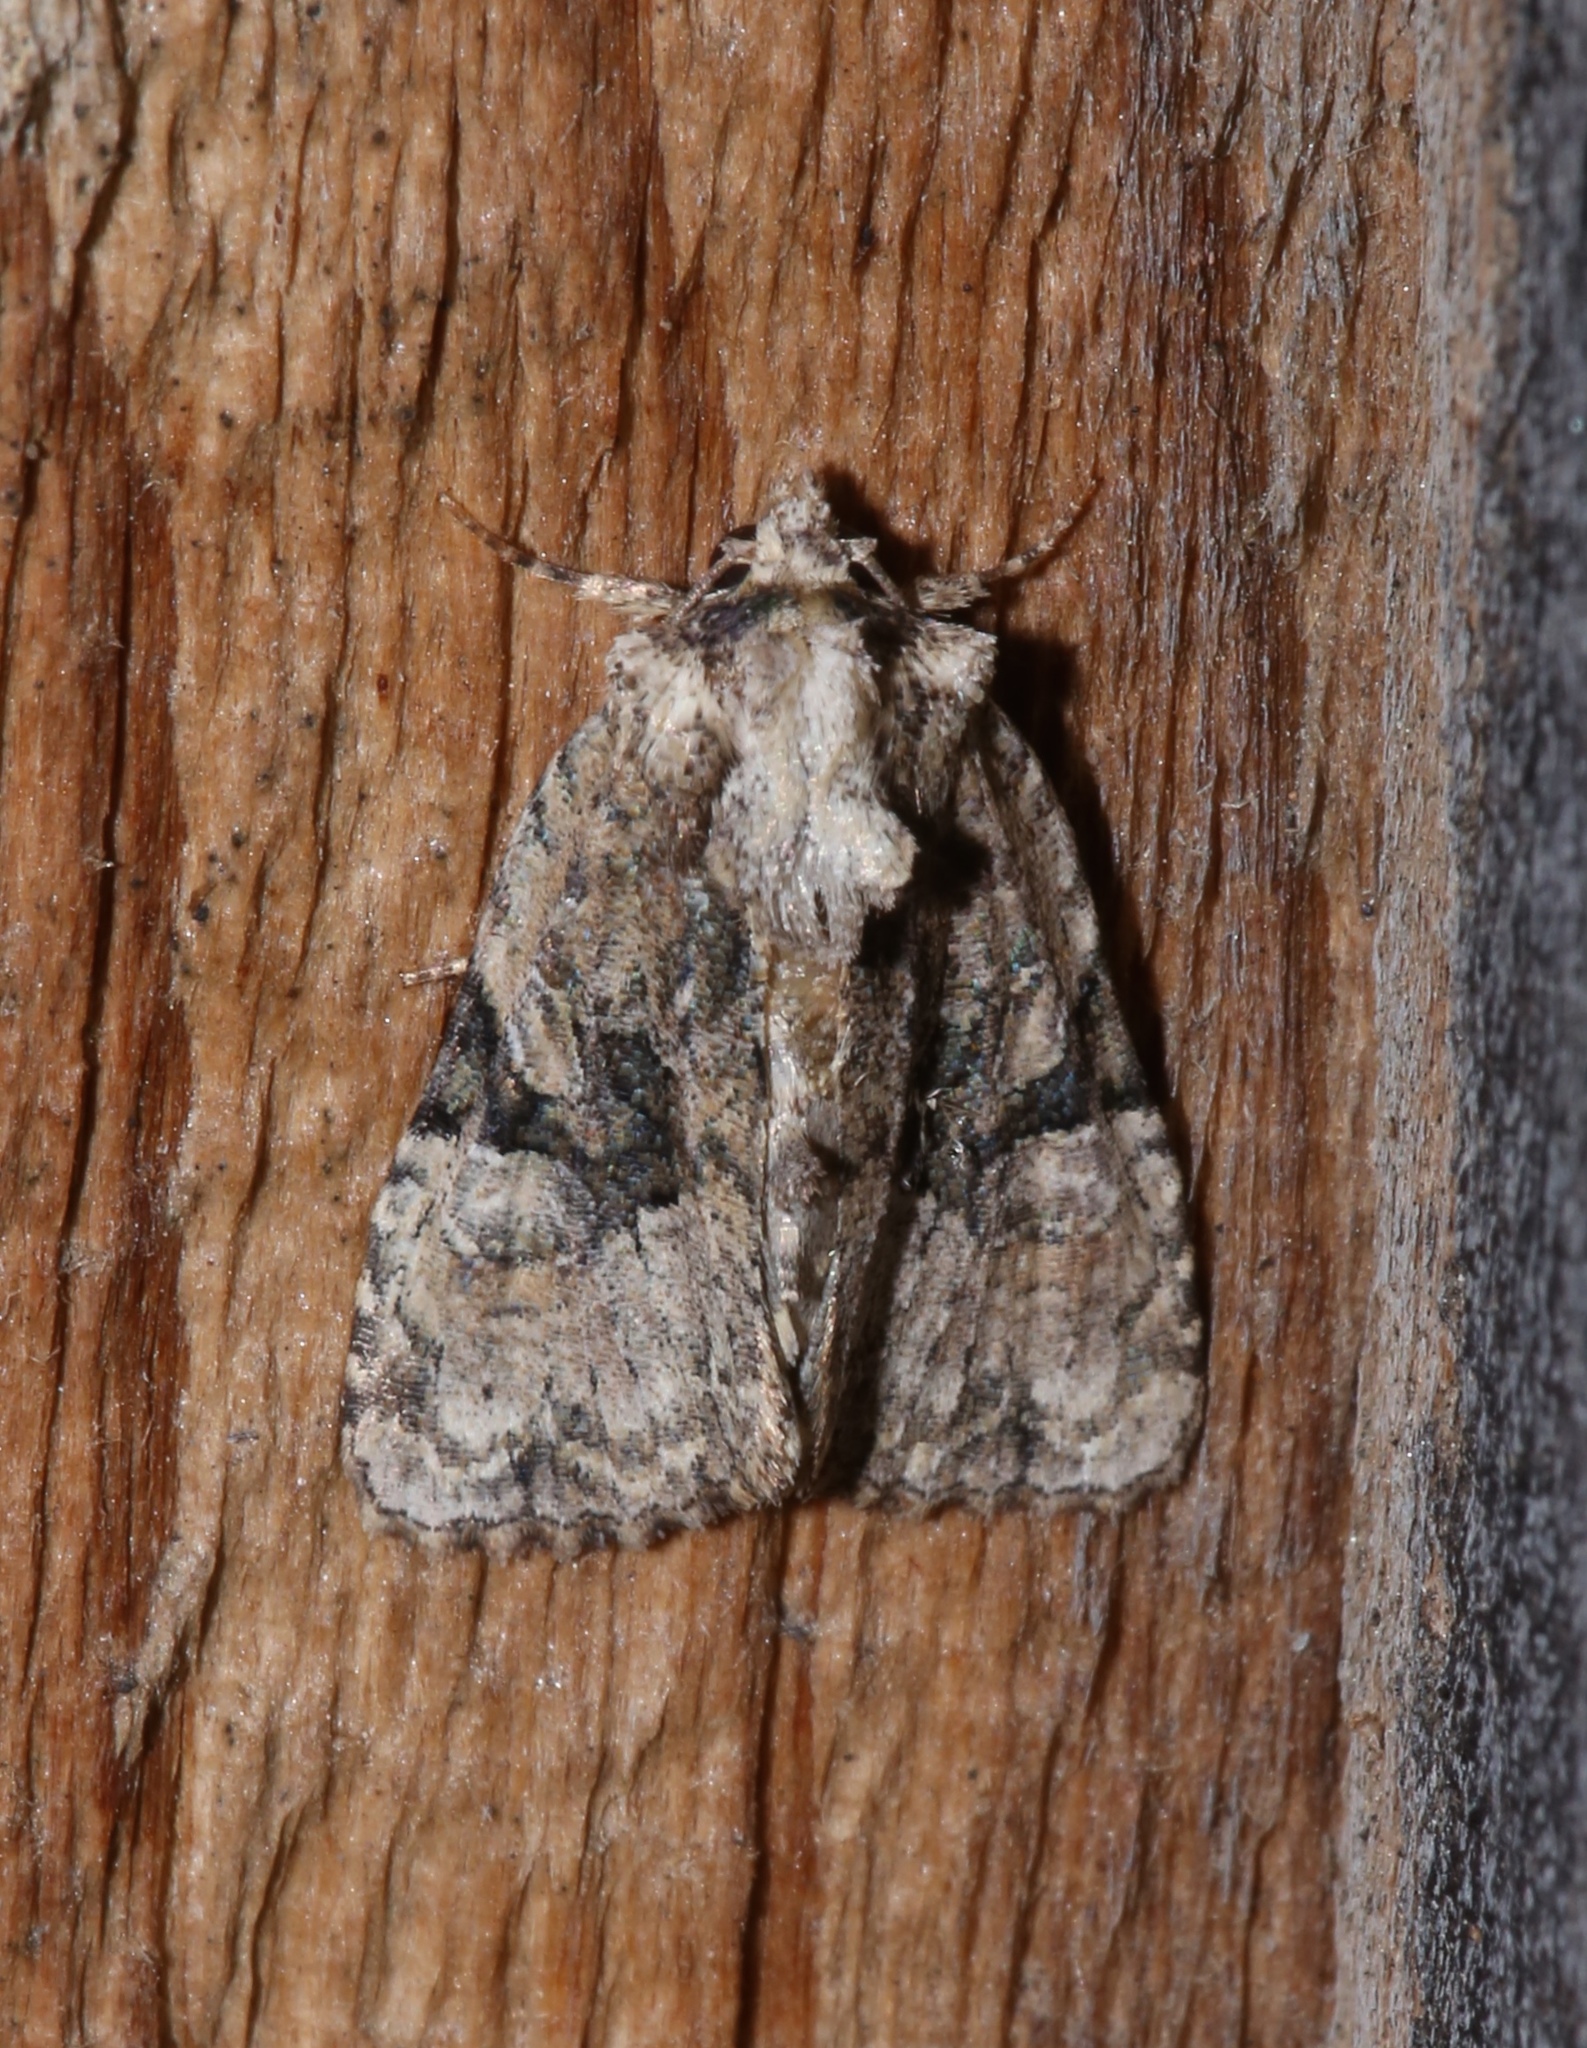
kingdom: Animalia
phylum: Arthropoda
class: Insecta
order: Lepidoptera
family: Noctuidae
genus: Oligia
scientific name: Oligia modica
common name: Black-banded brocade
